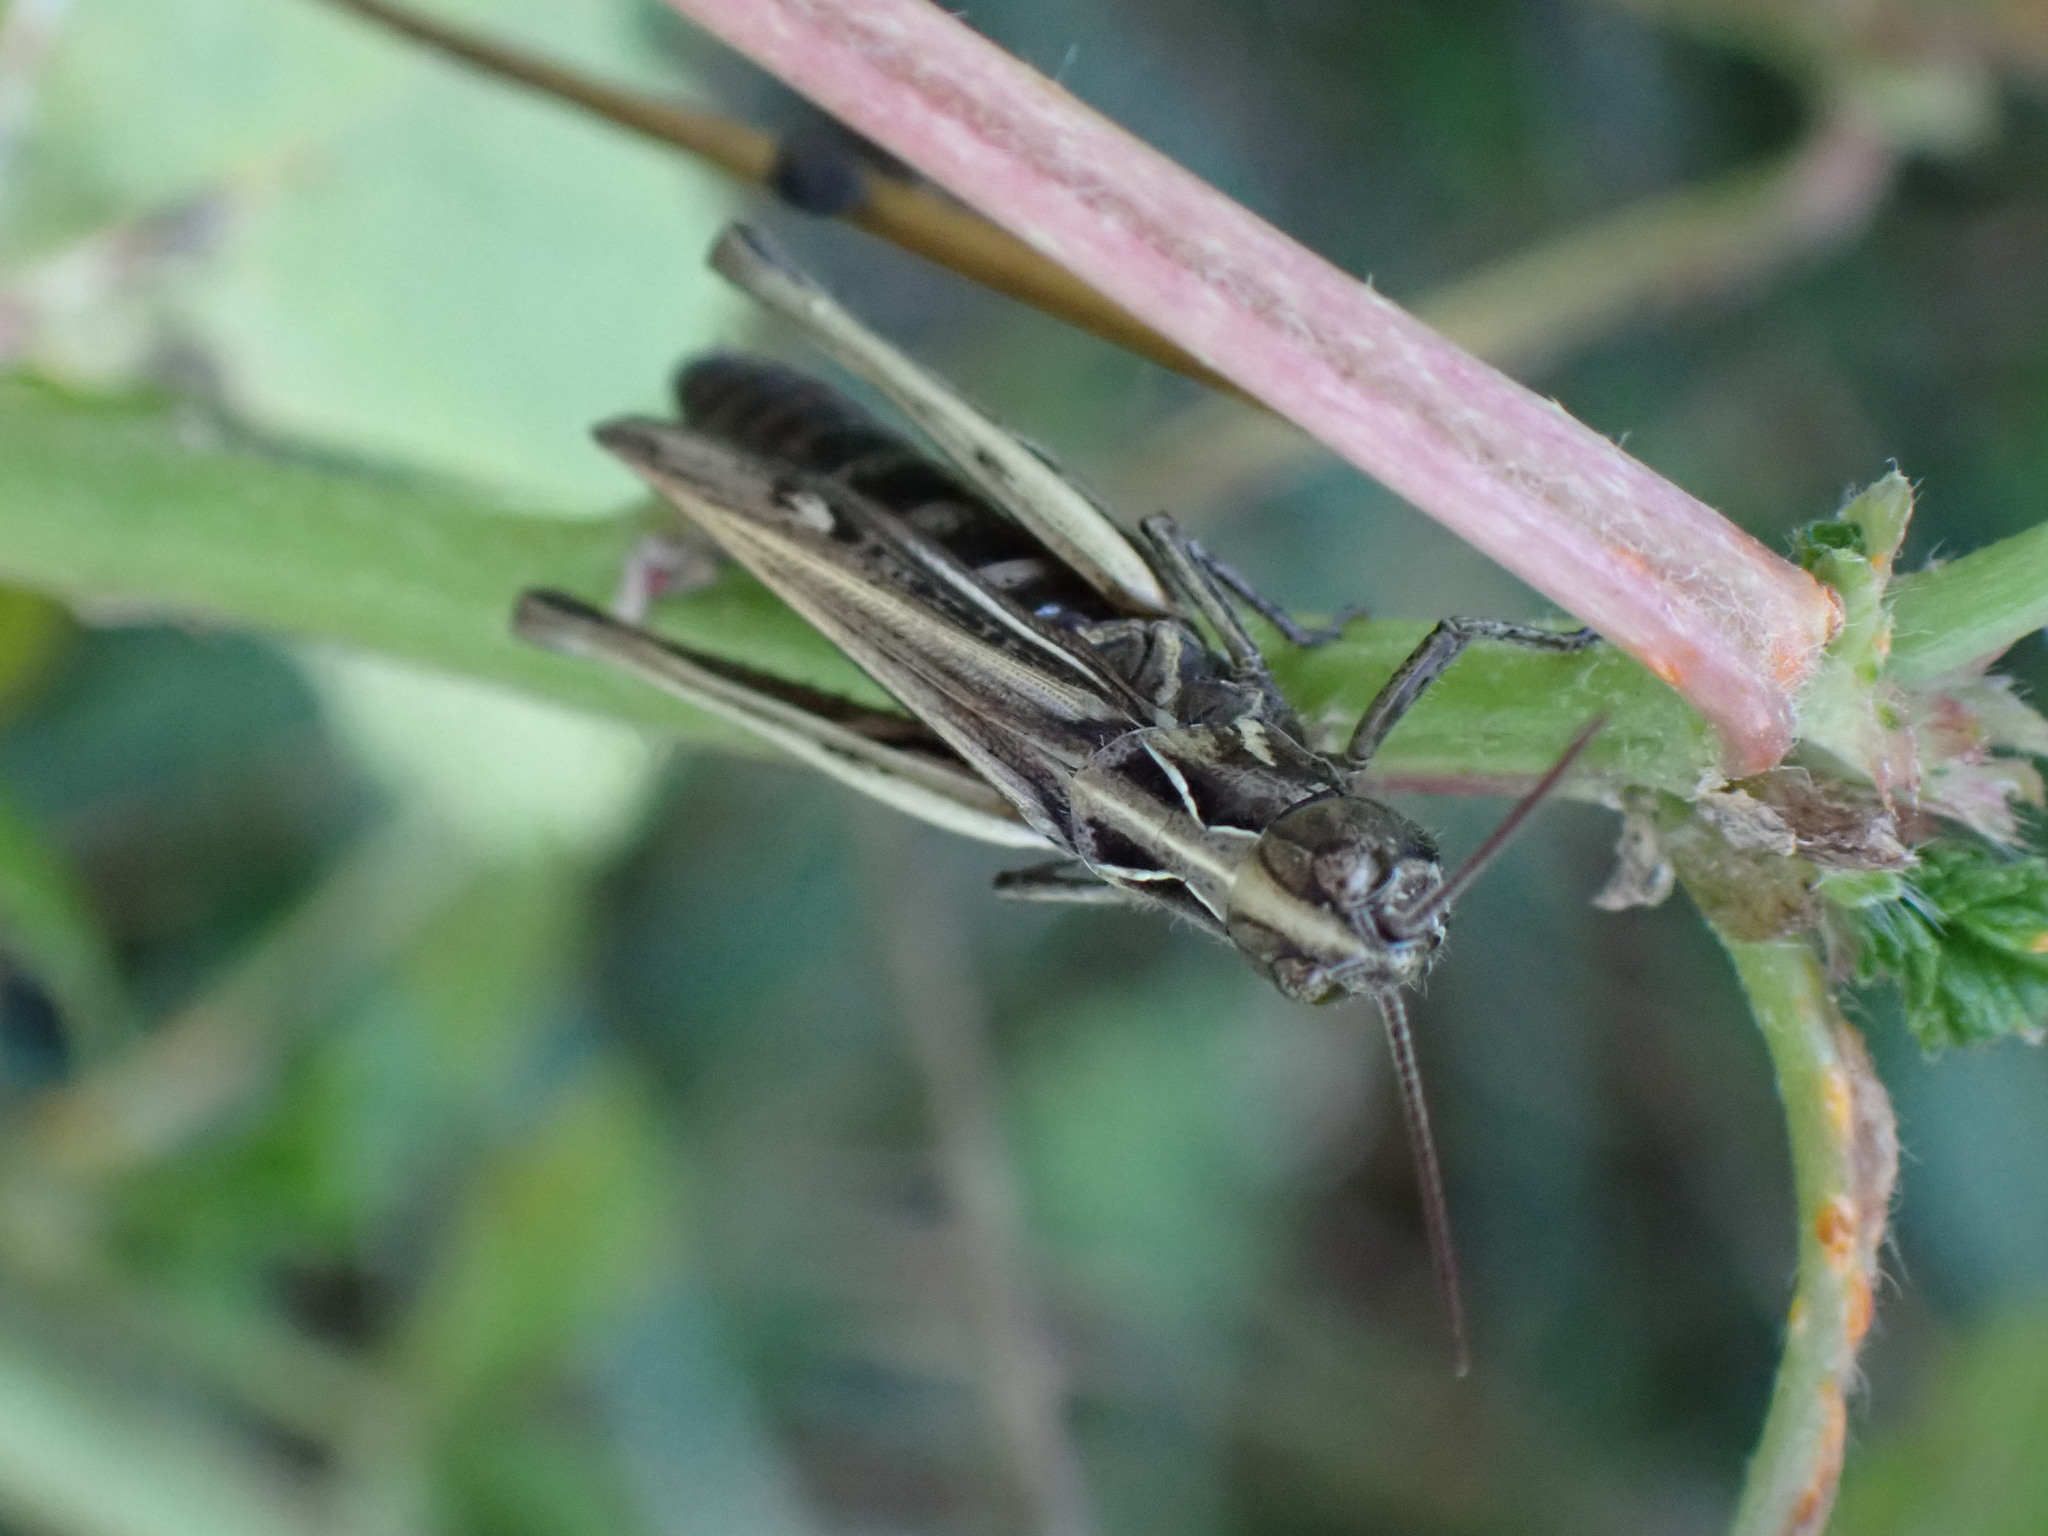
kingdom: Animalia
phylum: Arthropoda
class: Insecta
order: Orthoptera
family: Acrididae
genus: Glyptobothrus
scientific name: Glyptobothrus
